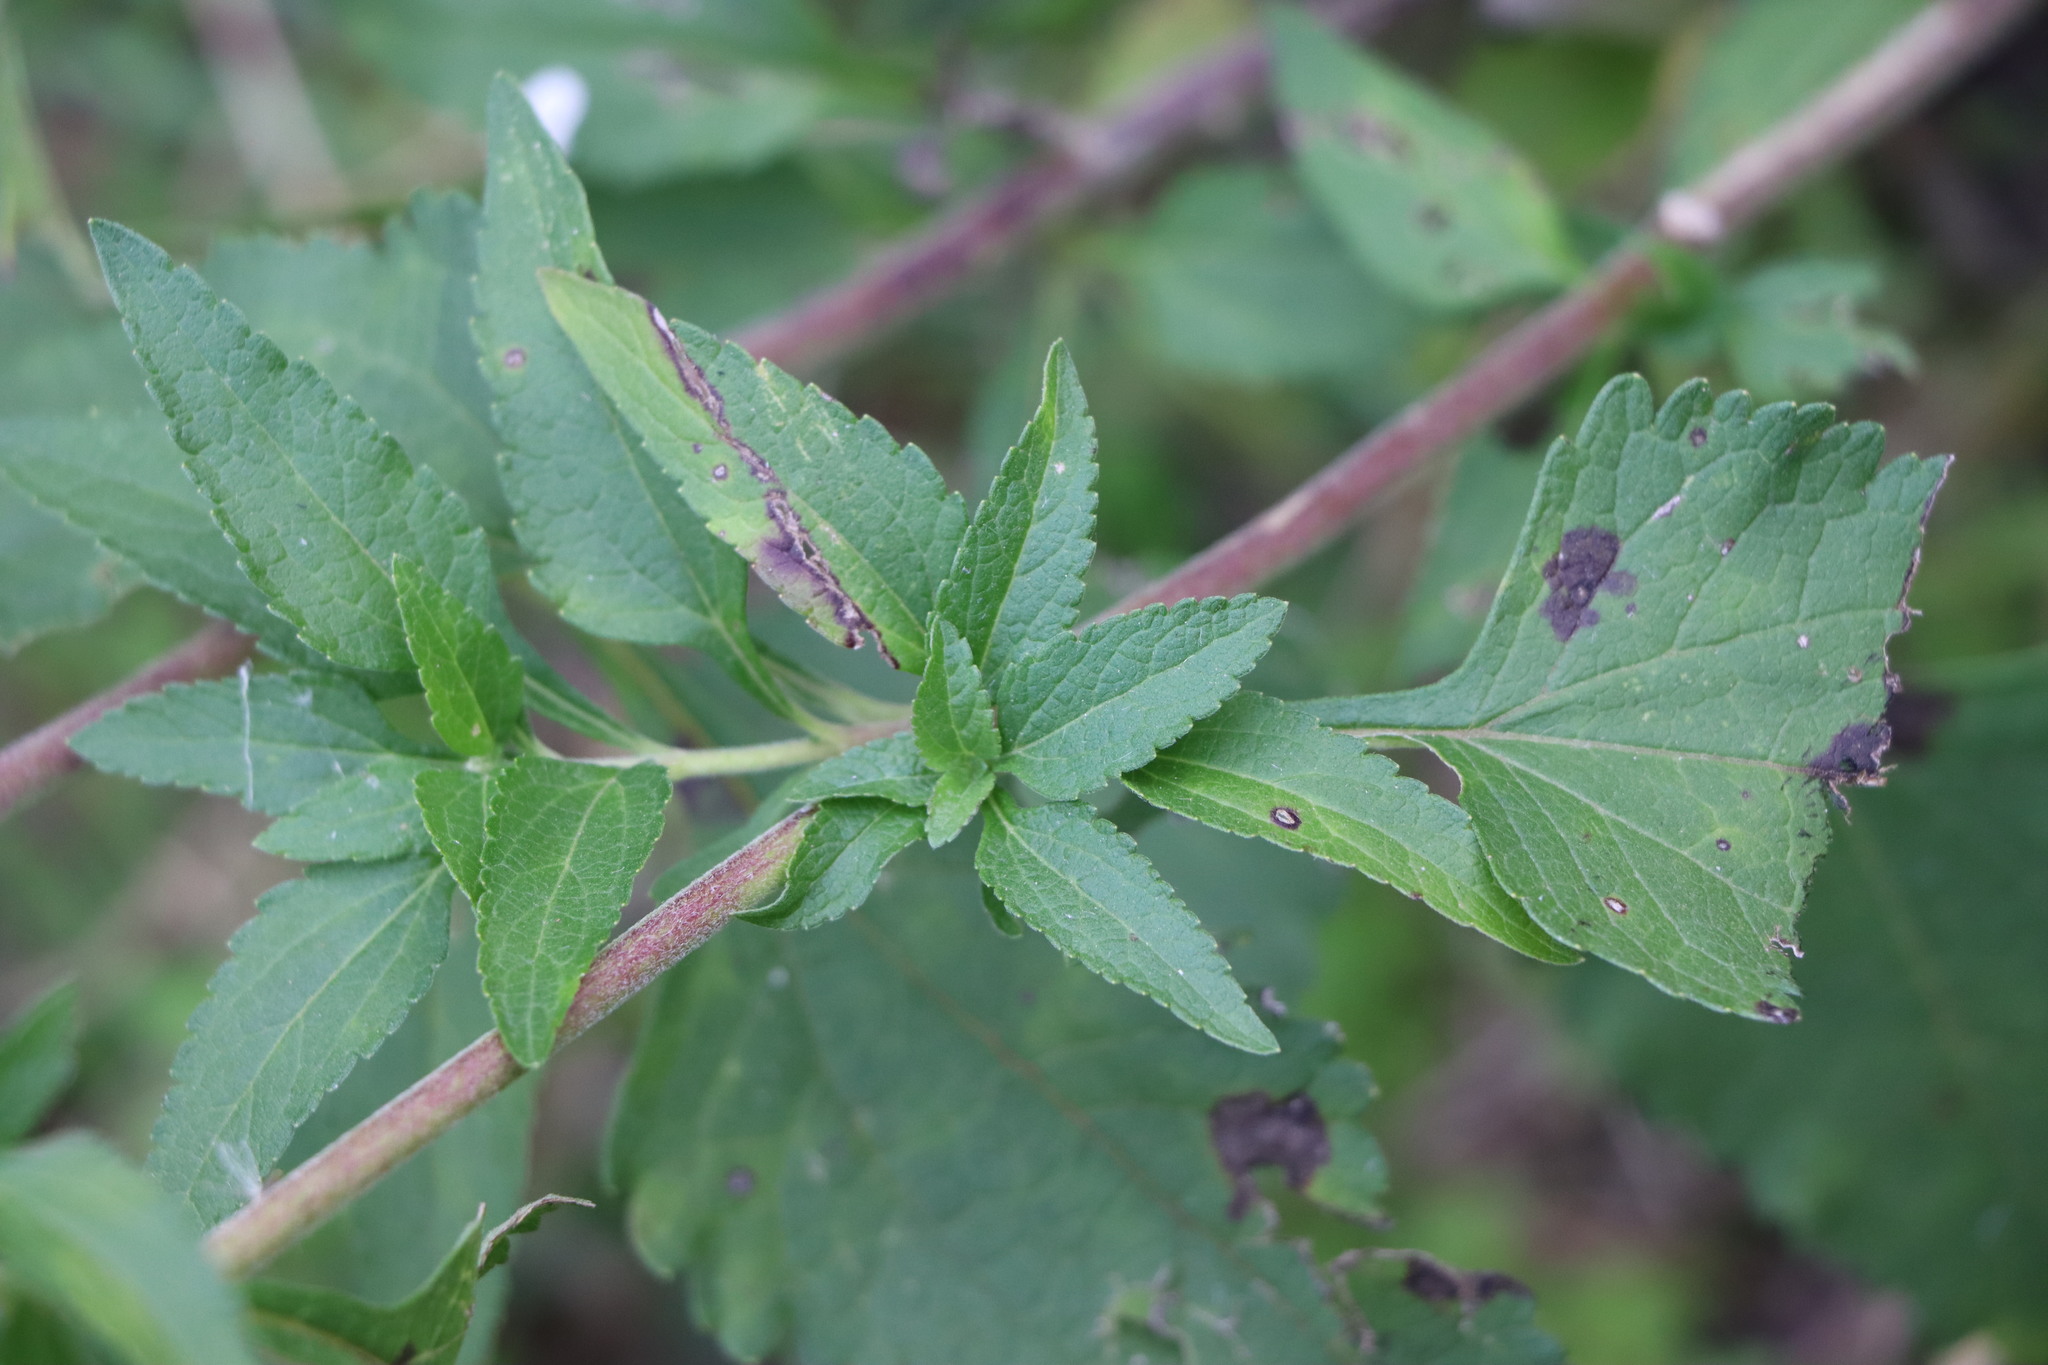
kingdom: Plantae
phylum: Tracheophyta
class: Magnoliopsida
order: Asterales
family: Asteraceae
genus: Austroeupatorium
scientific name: Austroeupatorium inulifolium
